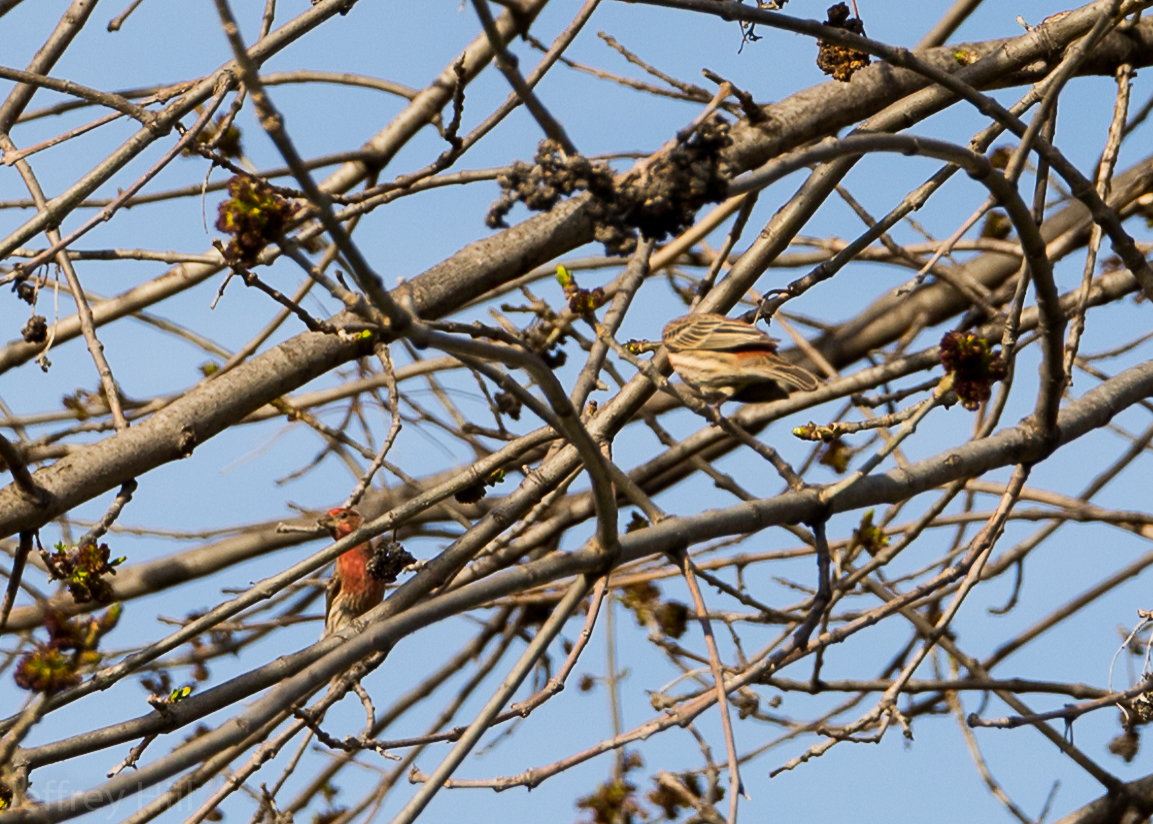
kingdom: Animalia
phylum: Chordata
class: Aves
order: Passeriformes
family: Fringillidae
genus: Haemorhous
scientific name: Haemorhous mexicanus
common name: House finch
